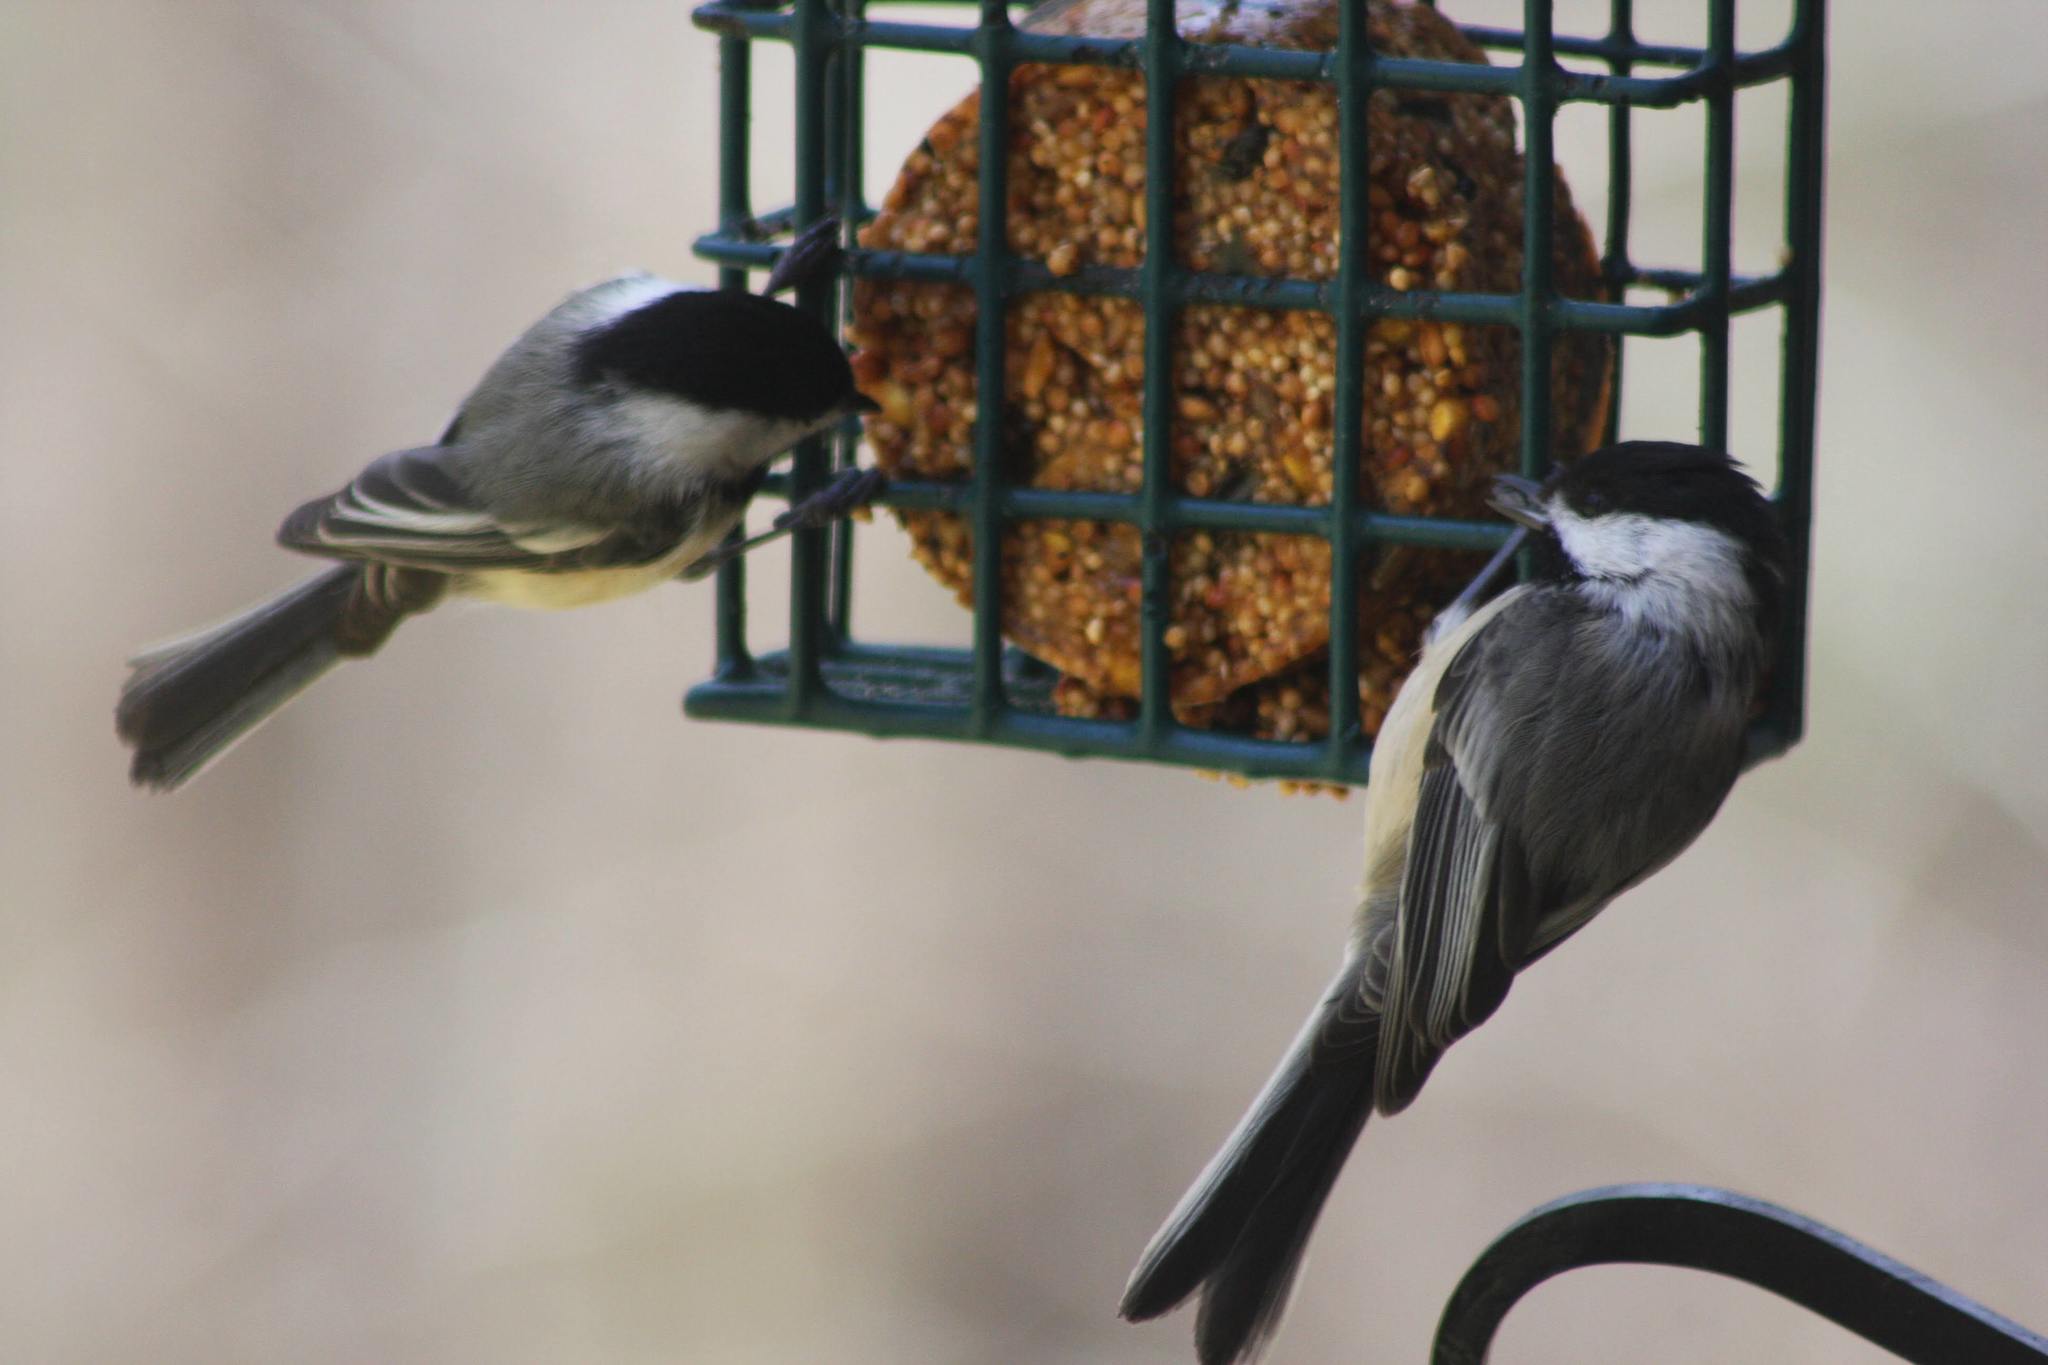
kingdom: Animalia
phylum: Chordata
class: Aves
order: Passeriformes
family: Paridae
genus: Poecile
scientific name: Poecile atricapillus
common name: Black-capped chickadee
